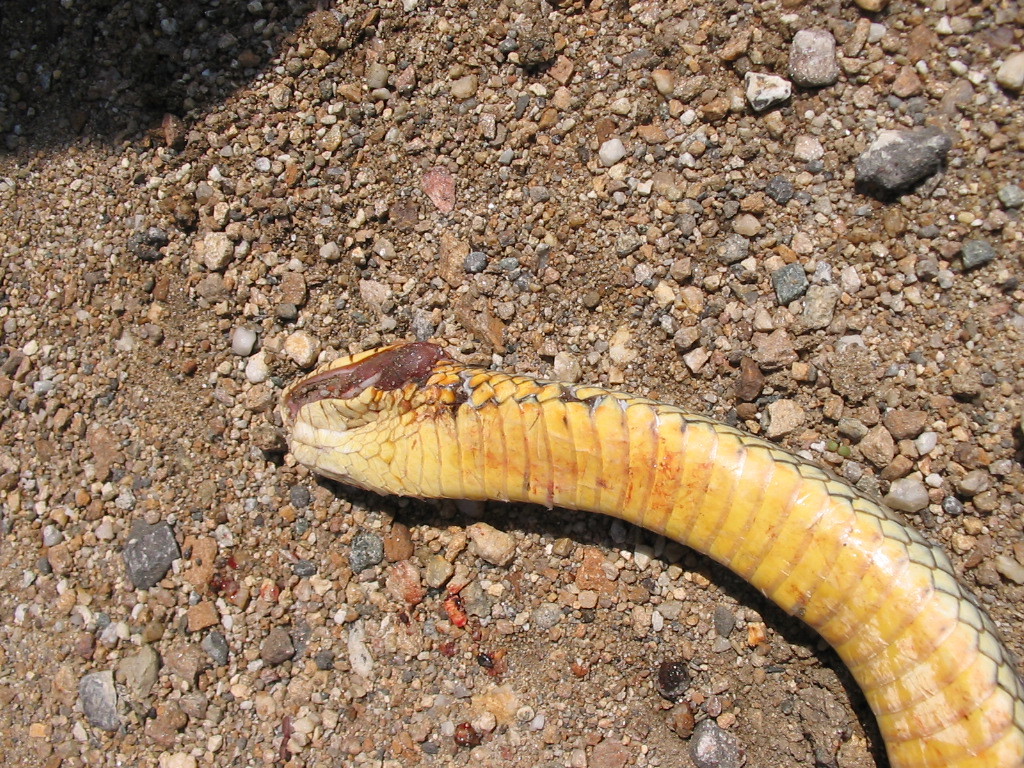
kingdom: Animalia
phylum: Chordata
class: Squamata
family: Colubridae
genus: Dolichophis
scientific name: Dolichophis caspius
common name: Large whip snake
